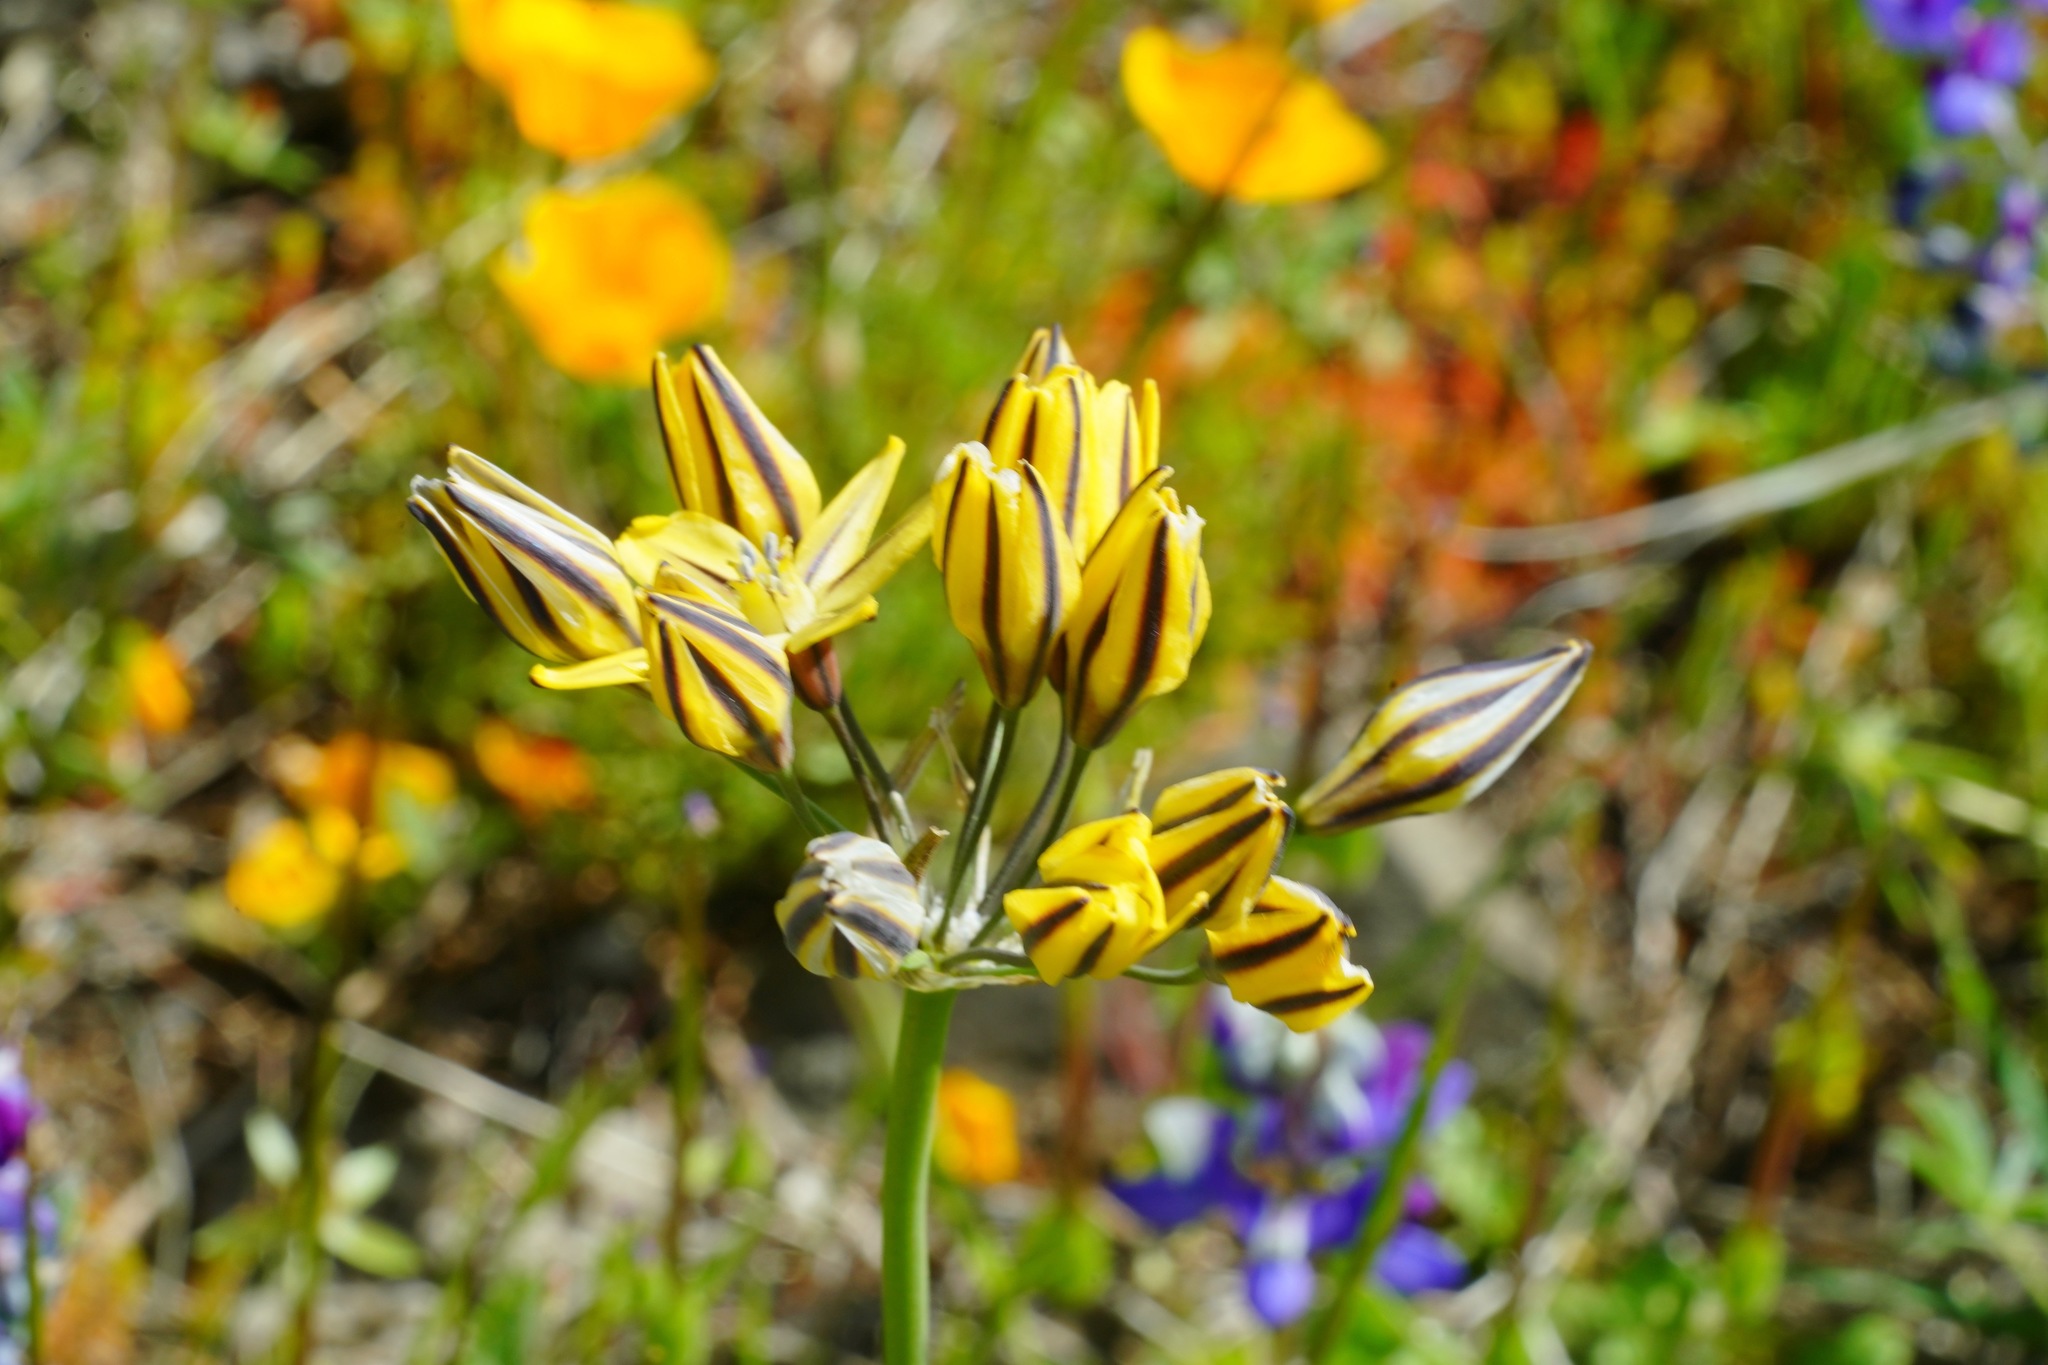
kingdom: Plantae
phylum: Tracheophyta
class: Liliopsida
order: Asparagales
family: Asparagaceae
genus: Triteleia
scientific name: Triteleia ixioides
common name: Yellow-brodiaea
